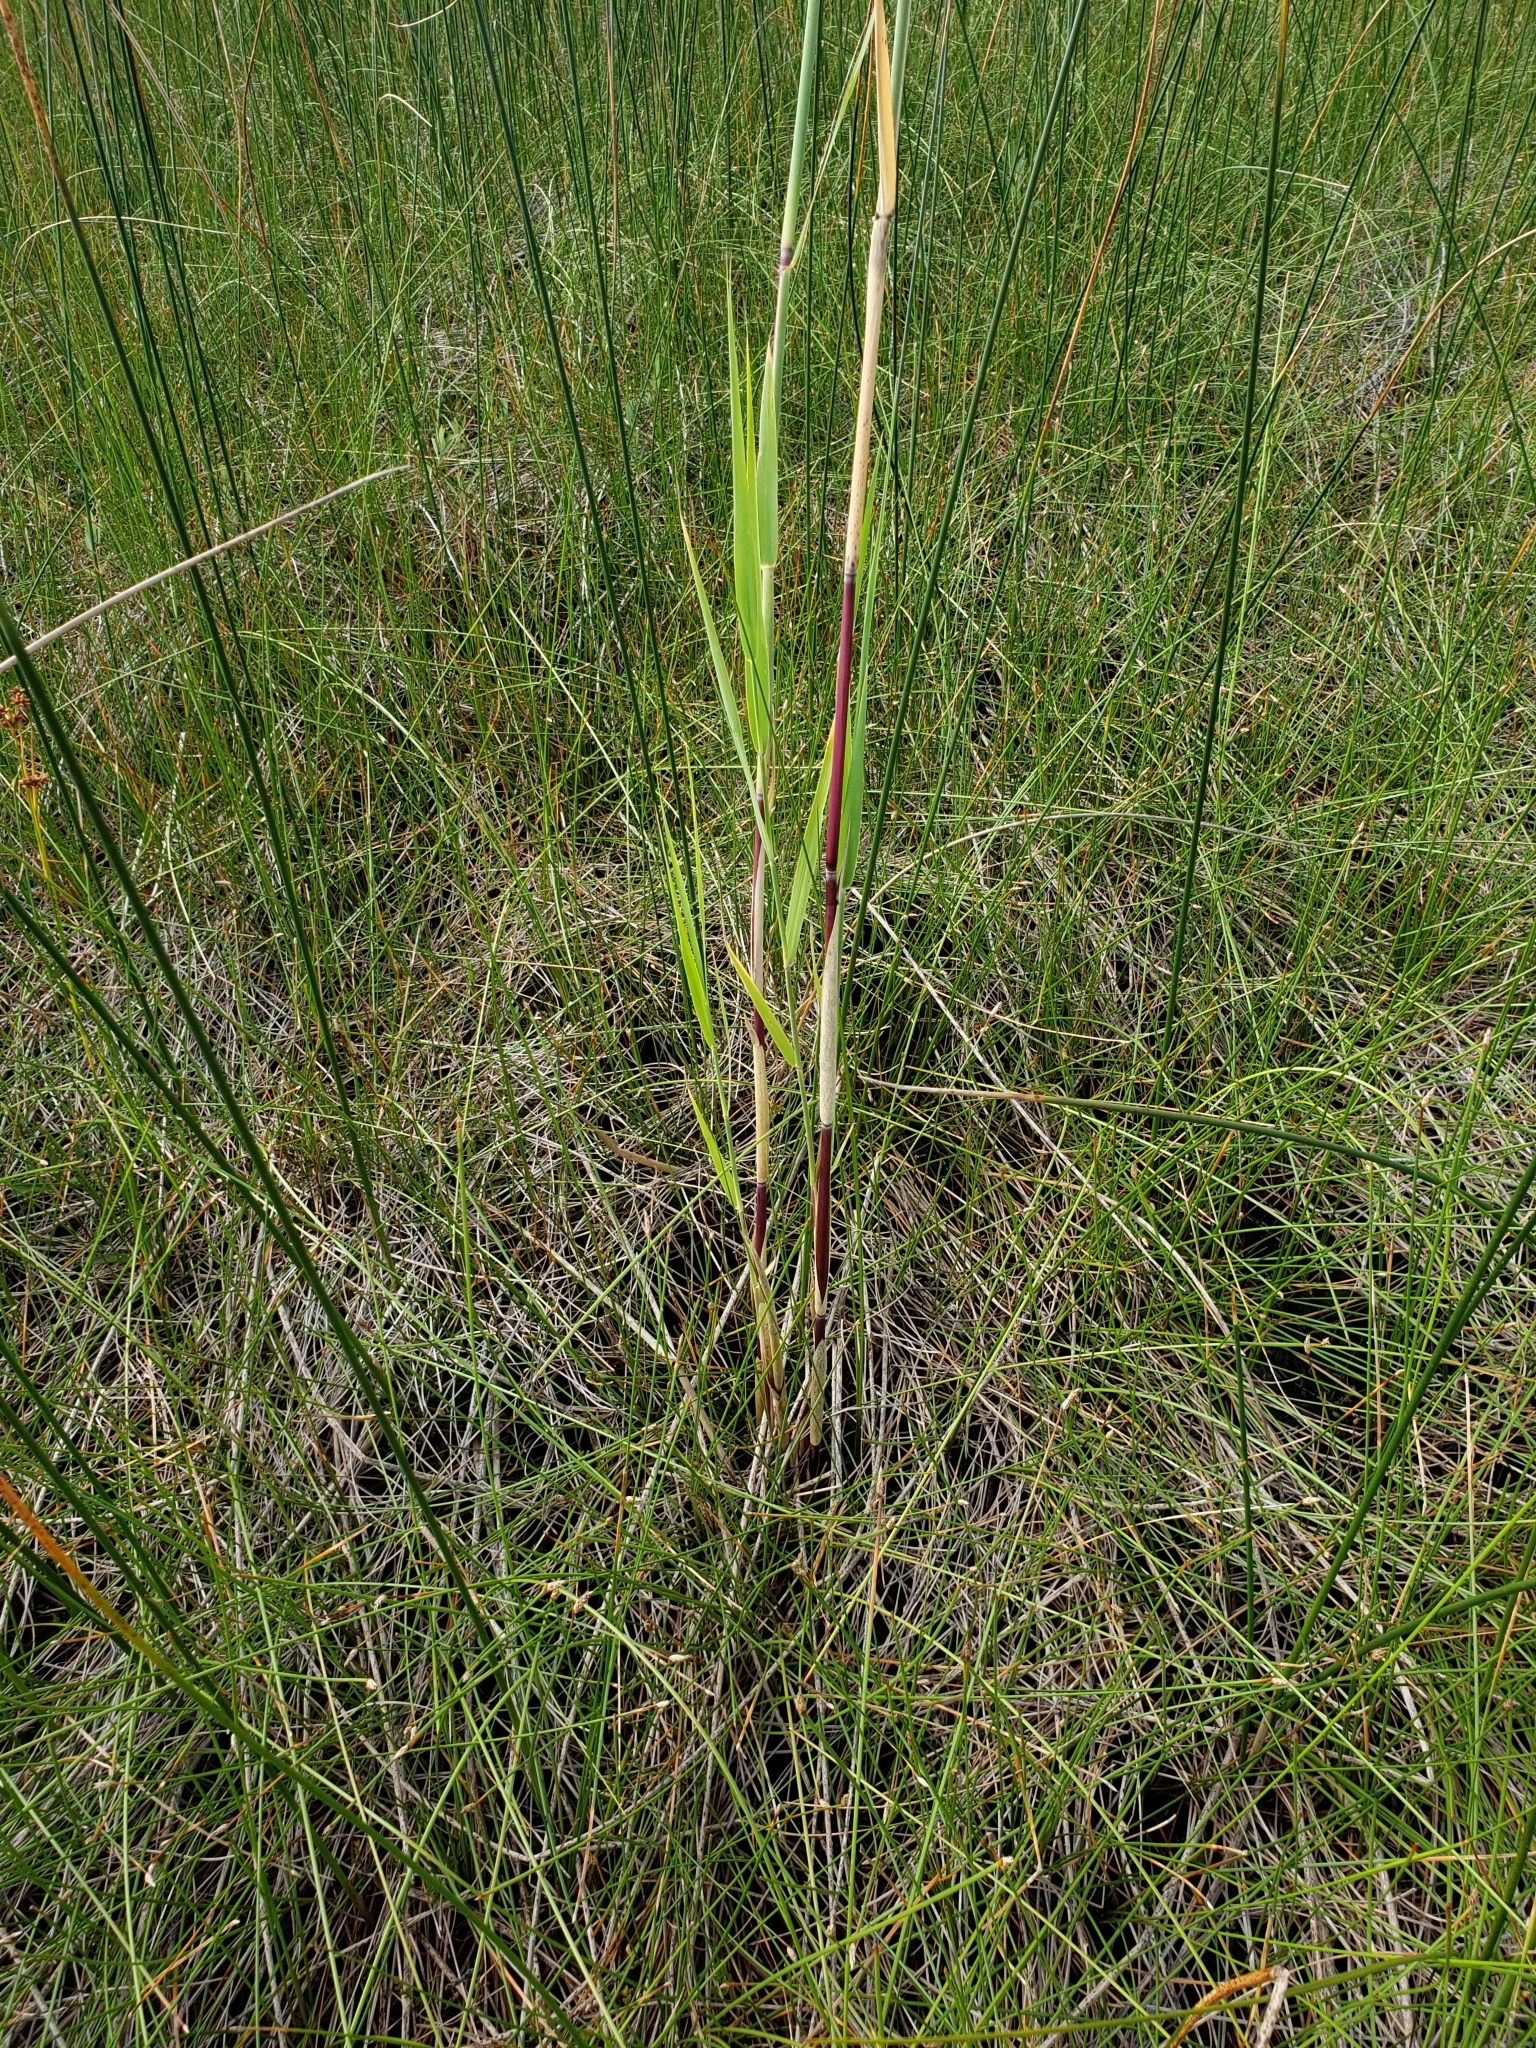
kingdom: Plantae
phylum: Tracheophyta
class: Liliopsida
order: Poales
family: Poaceae
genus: Phragmites
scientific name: Phragmites australis
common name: Common reed
